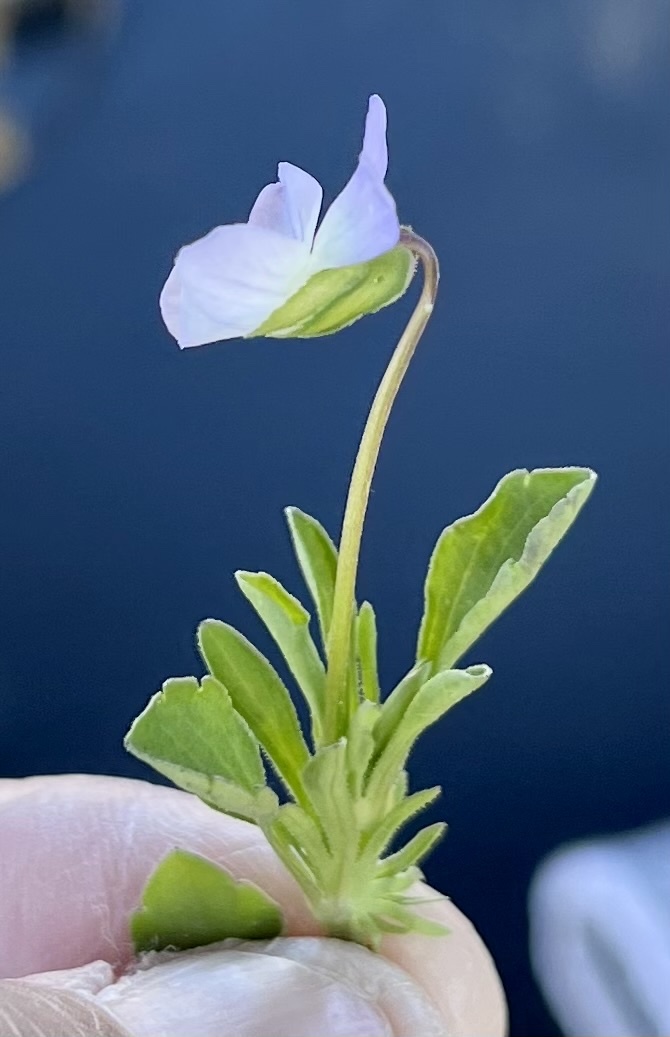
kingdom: Plantae
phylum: Tracheophyta
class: Magnoliopsida
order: Malpighiales
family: Violaceae
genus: Viola
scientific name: Viola rafinesquei
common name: American field pansy
